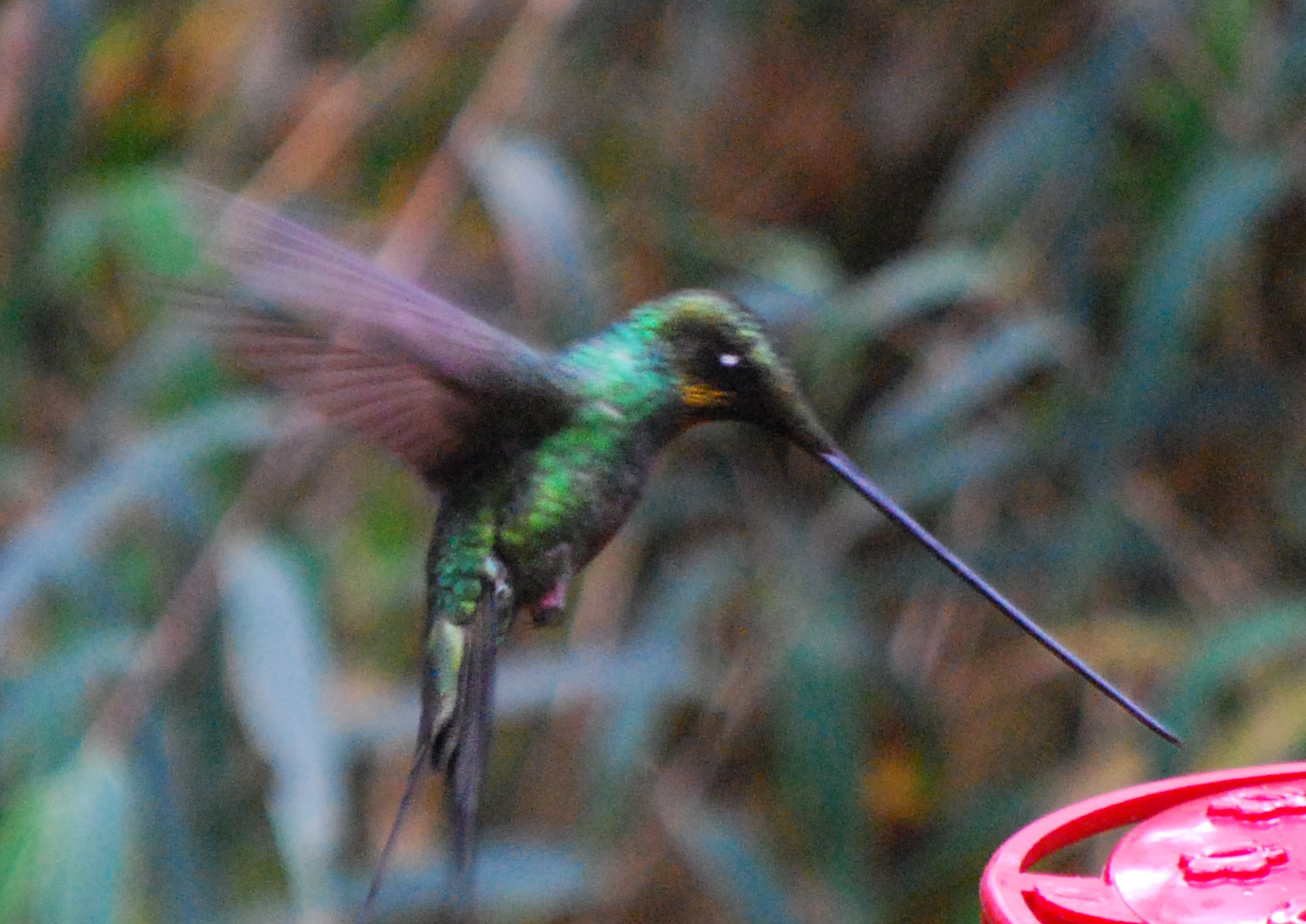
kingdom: Animalia
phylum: Chordata
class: Aves
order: Apodiformes
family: Trochilidae
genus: Ensifera
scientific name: Ensifera ensifera
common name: Sword-billed hummingbird
